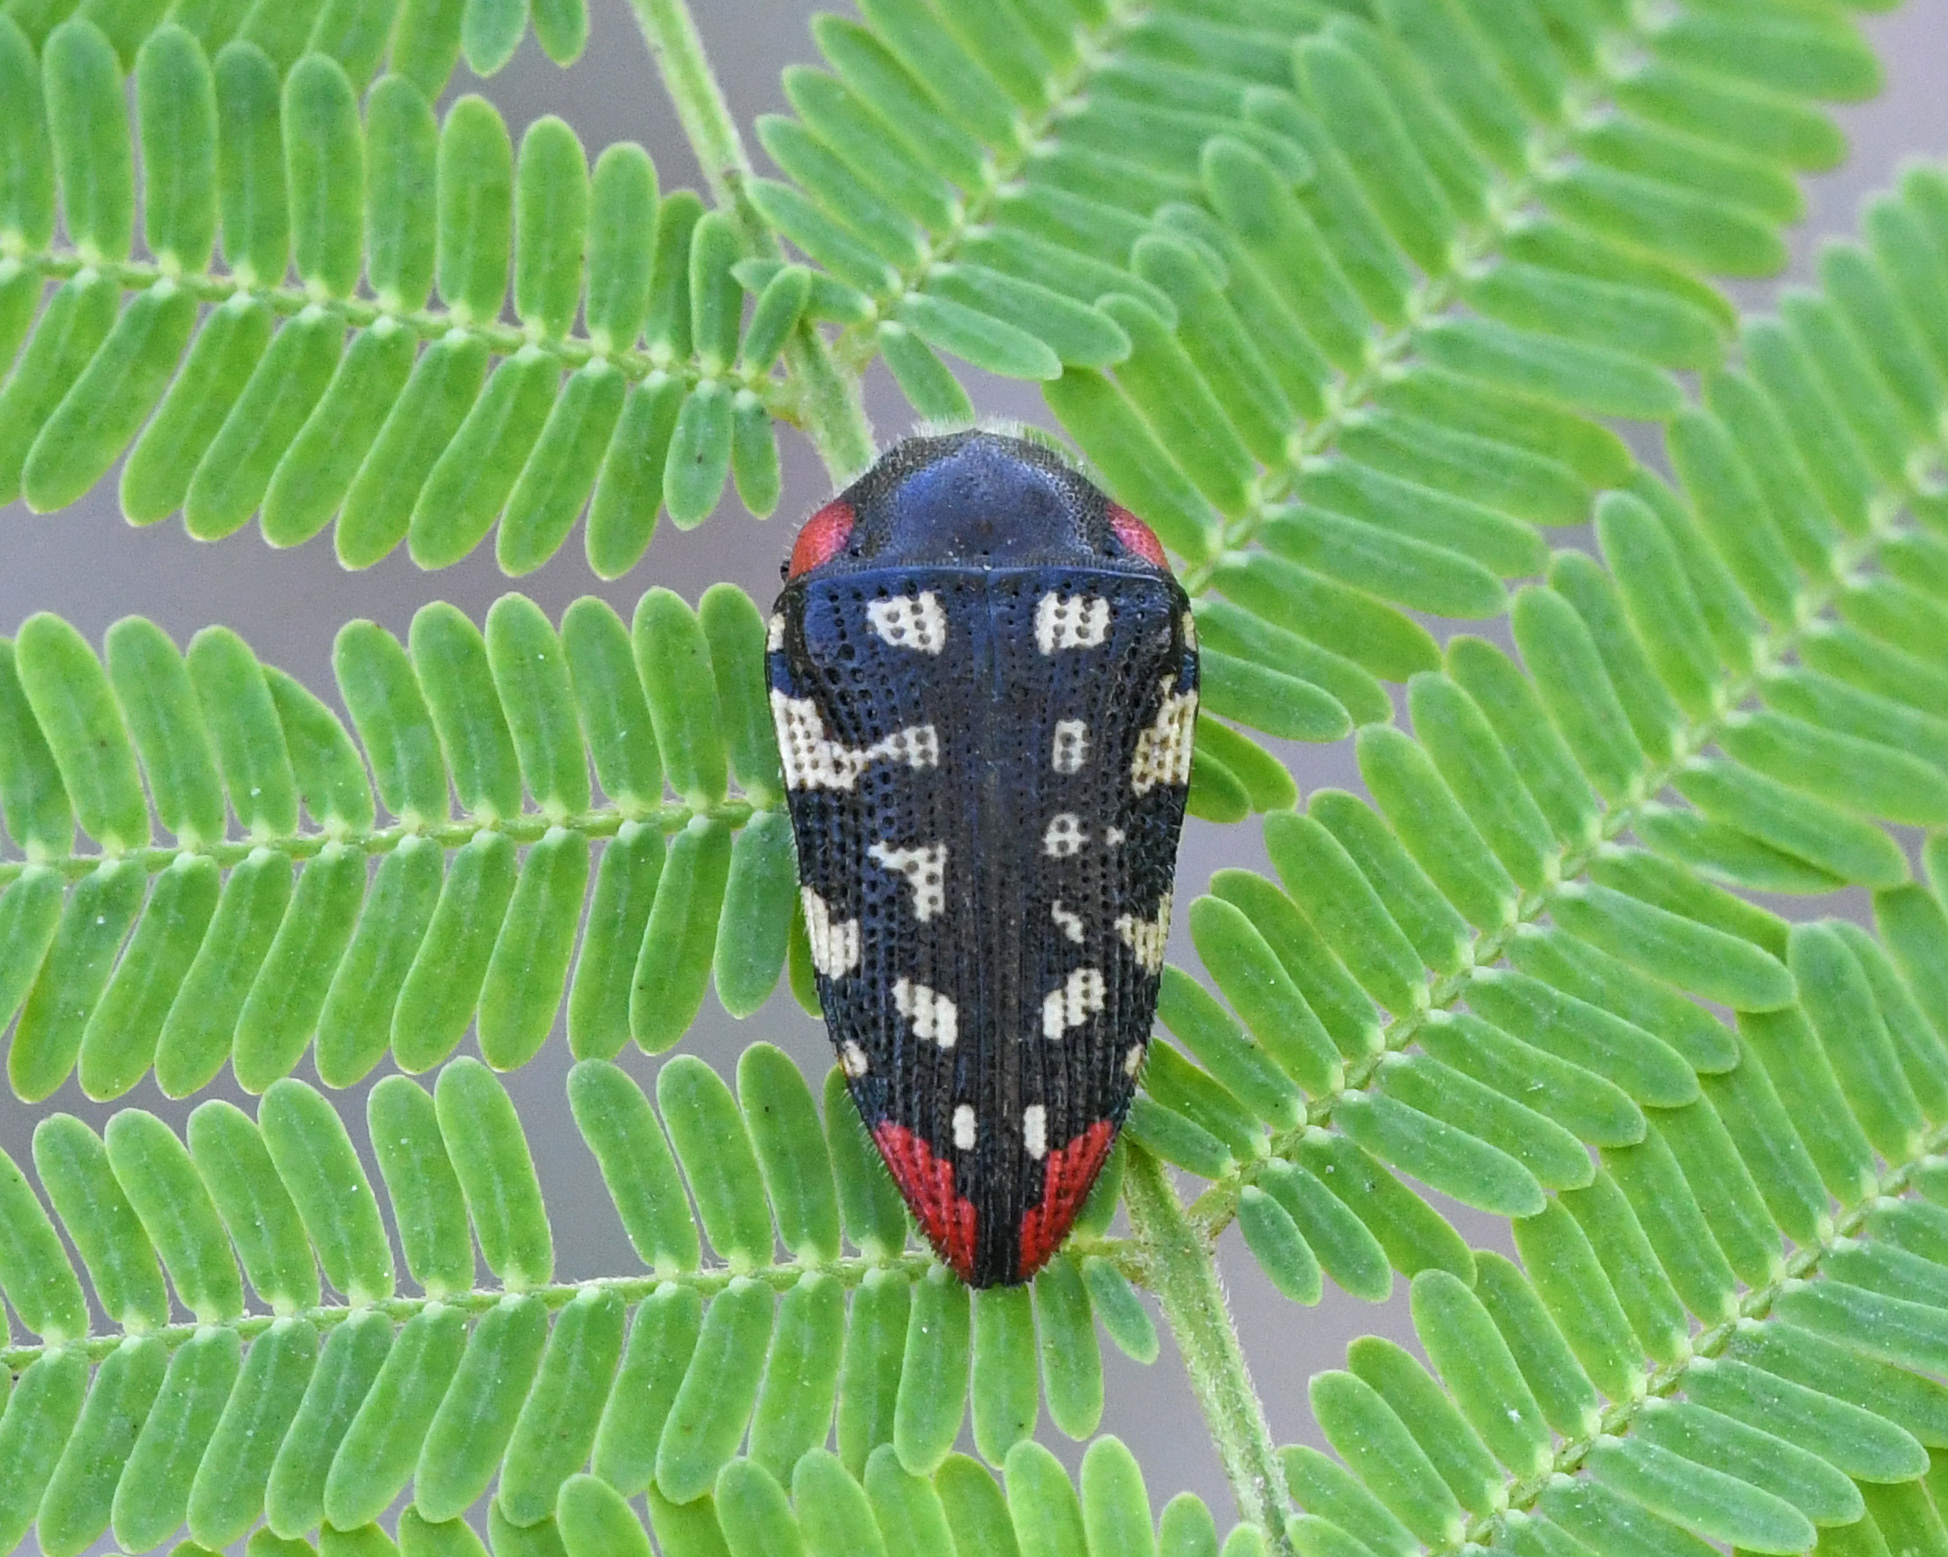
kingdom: Animalia
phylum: Arthropoda
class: Insecta
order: Coleoptera
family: Buprestidae
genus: Acmaeodera
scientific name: Acmaeodera cruenta
